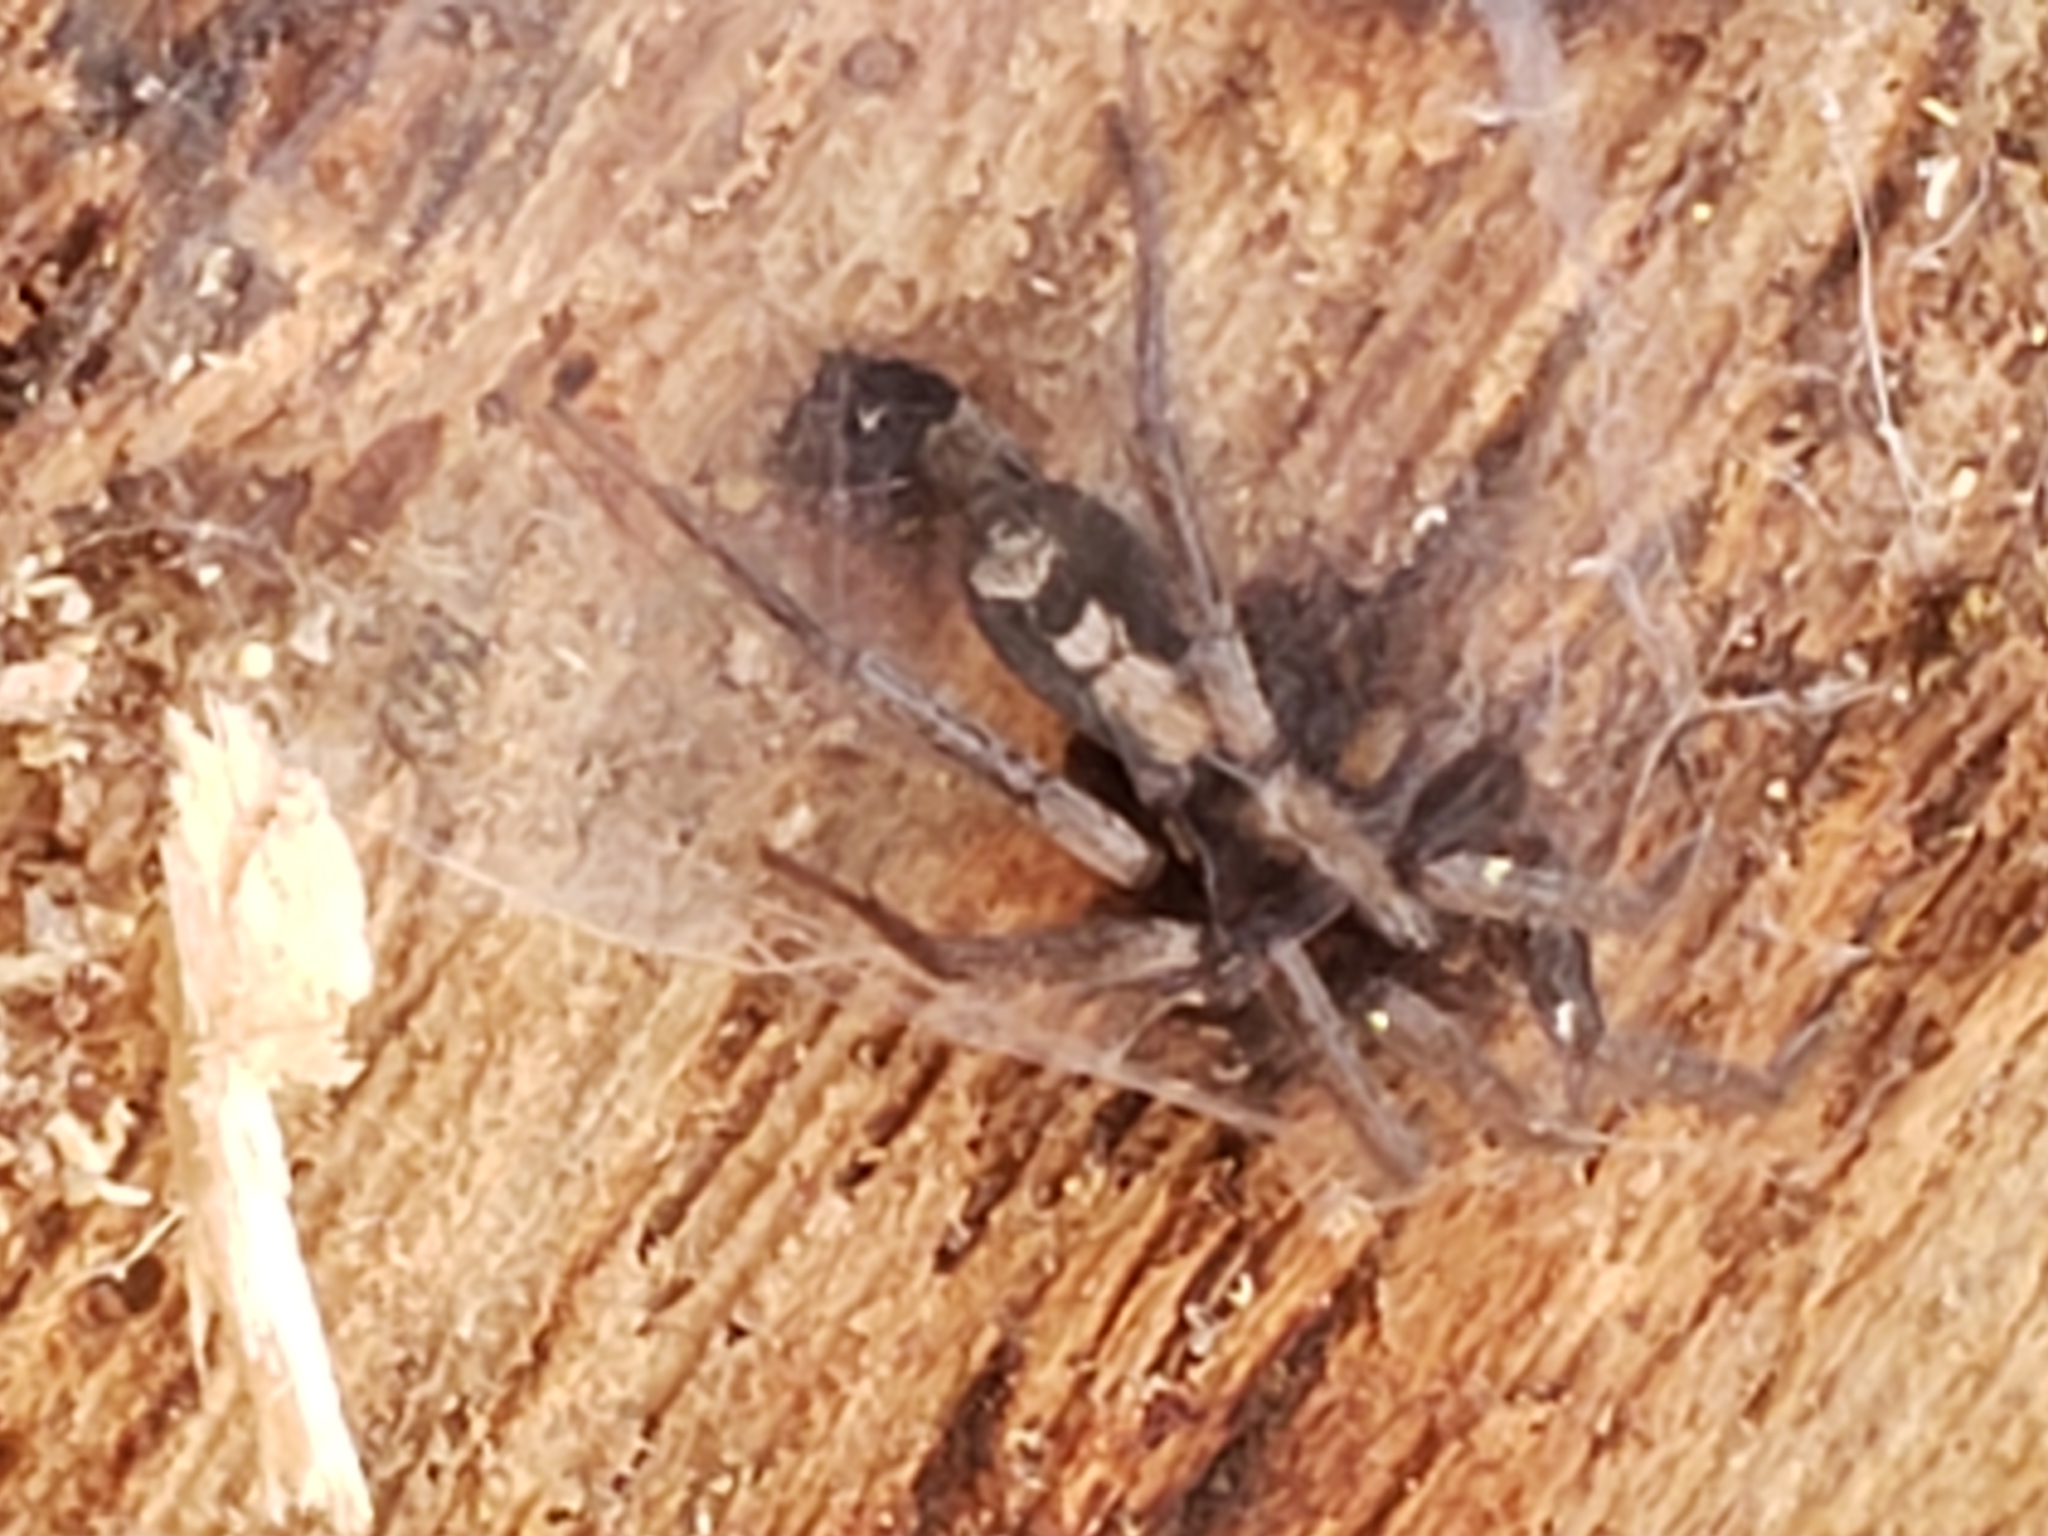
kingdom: Animalia
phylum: Arthropoda
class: Arachnida
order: Araneae
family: Gnaphosidae
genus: Herpyllus
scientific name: Herpyllus ecclesiasticus
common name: Eastern parson spider
